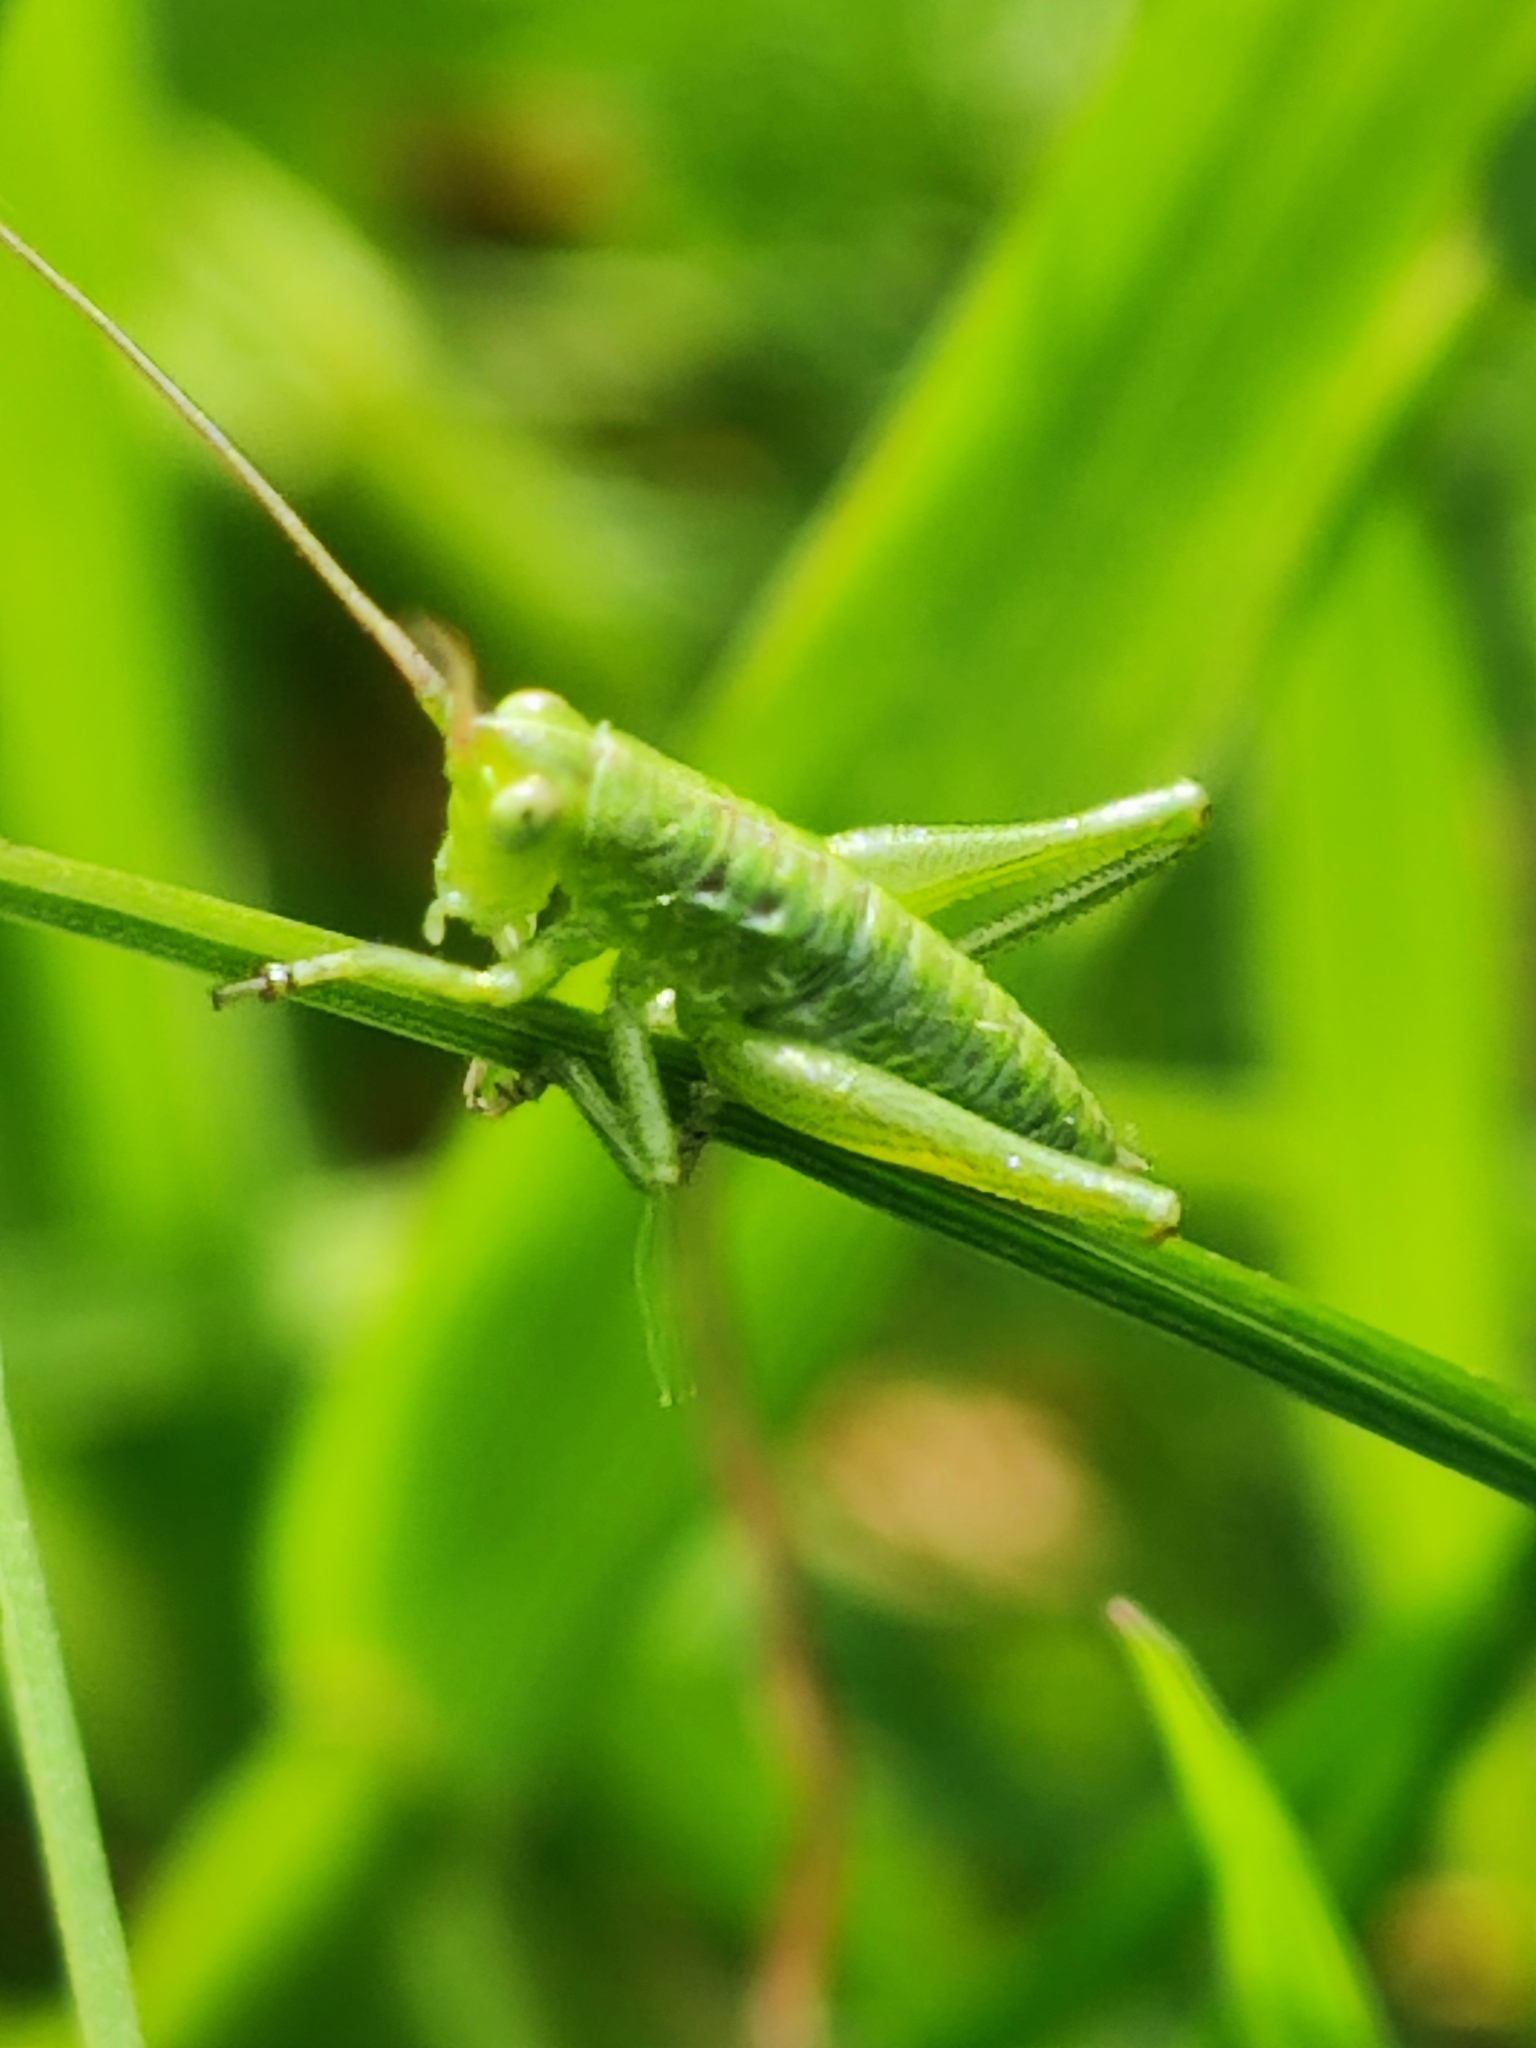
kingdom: Animalia
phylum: Arthropoda
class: Insecta
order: Orthoptera
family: Tettigoniidae
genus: Tettigonia
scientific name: Tettigonia viridissima
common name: Great green bush-cricket
